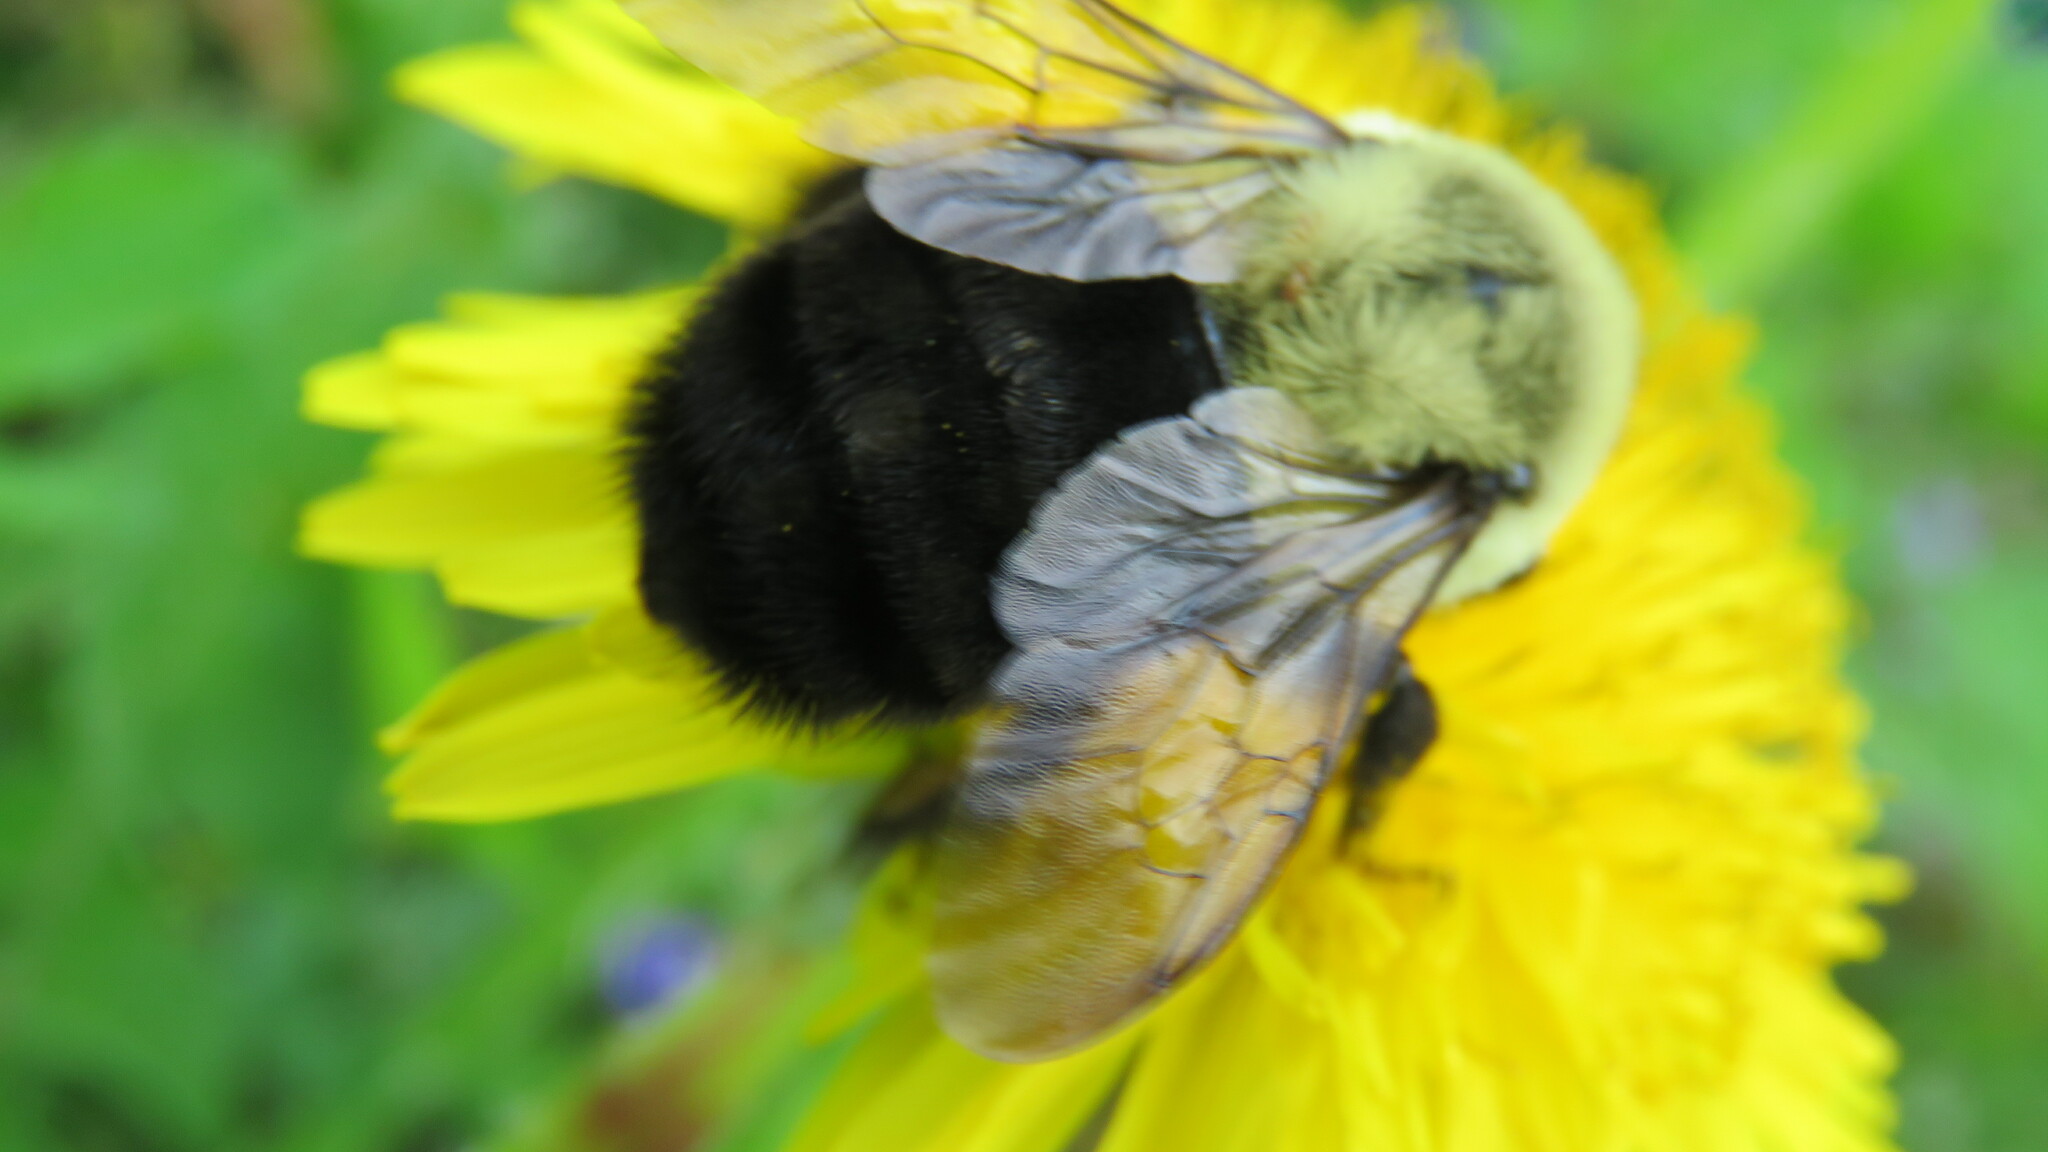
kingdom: Animalia
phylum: Arthropoda
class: Insecta
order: Hymenoptera
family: Apidae
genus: Bombus
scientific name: Bombus impatiens
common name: Common eastern bumble bee
